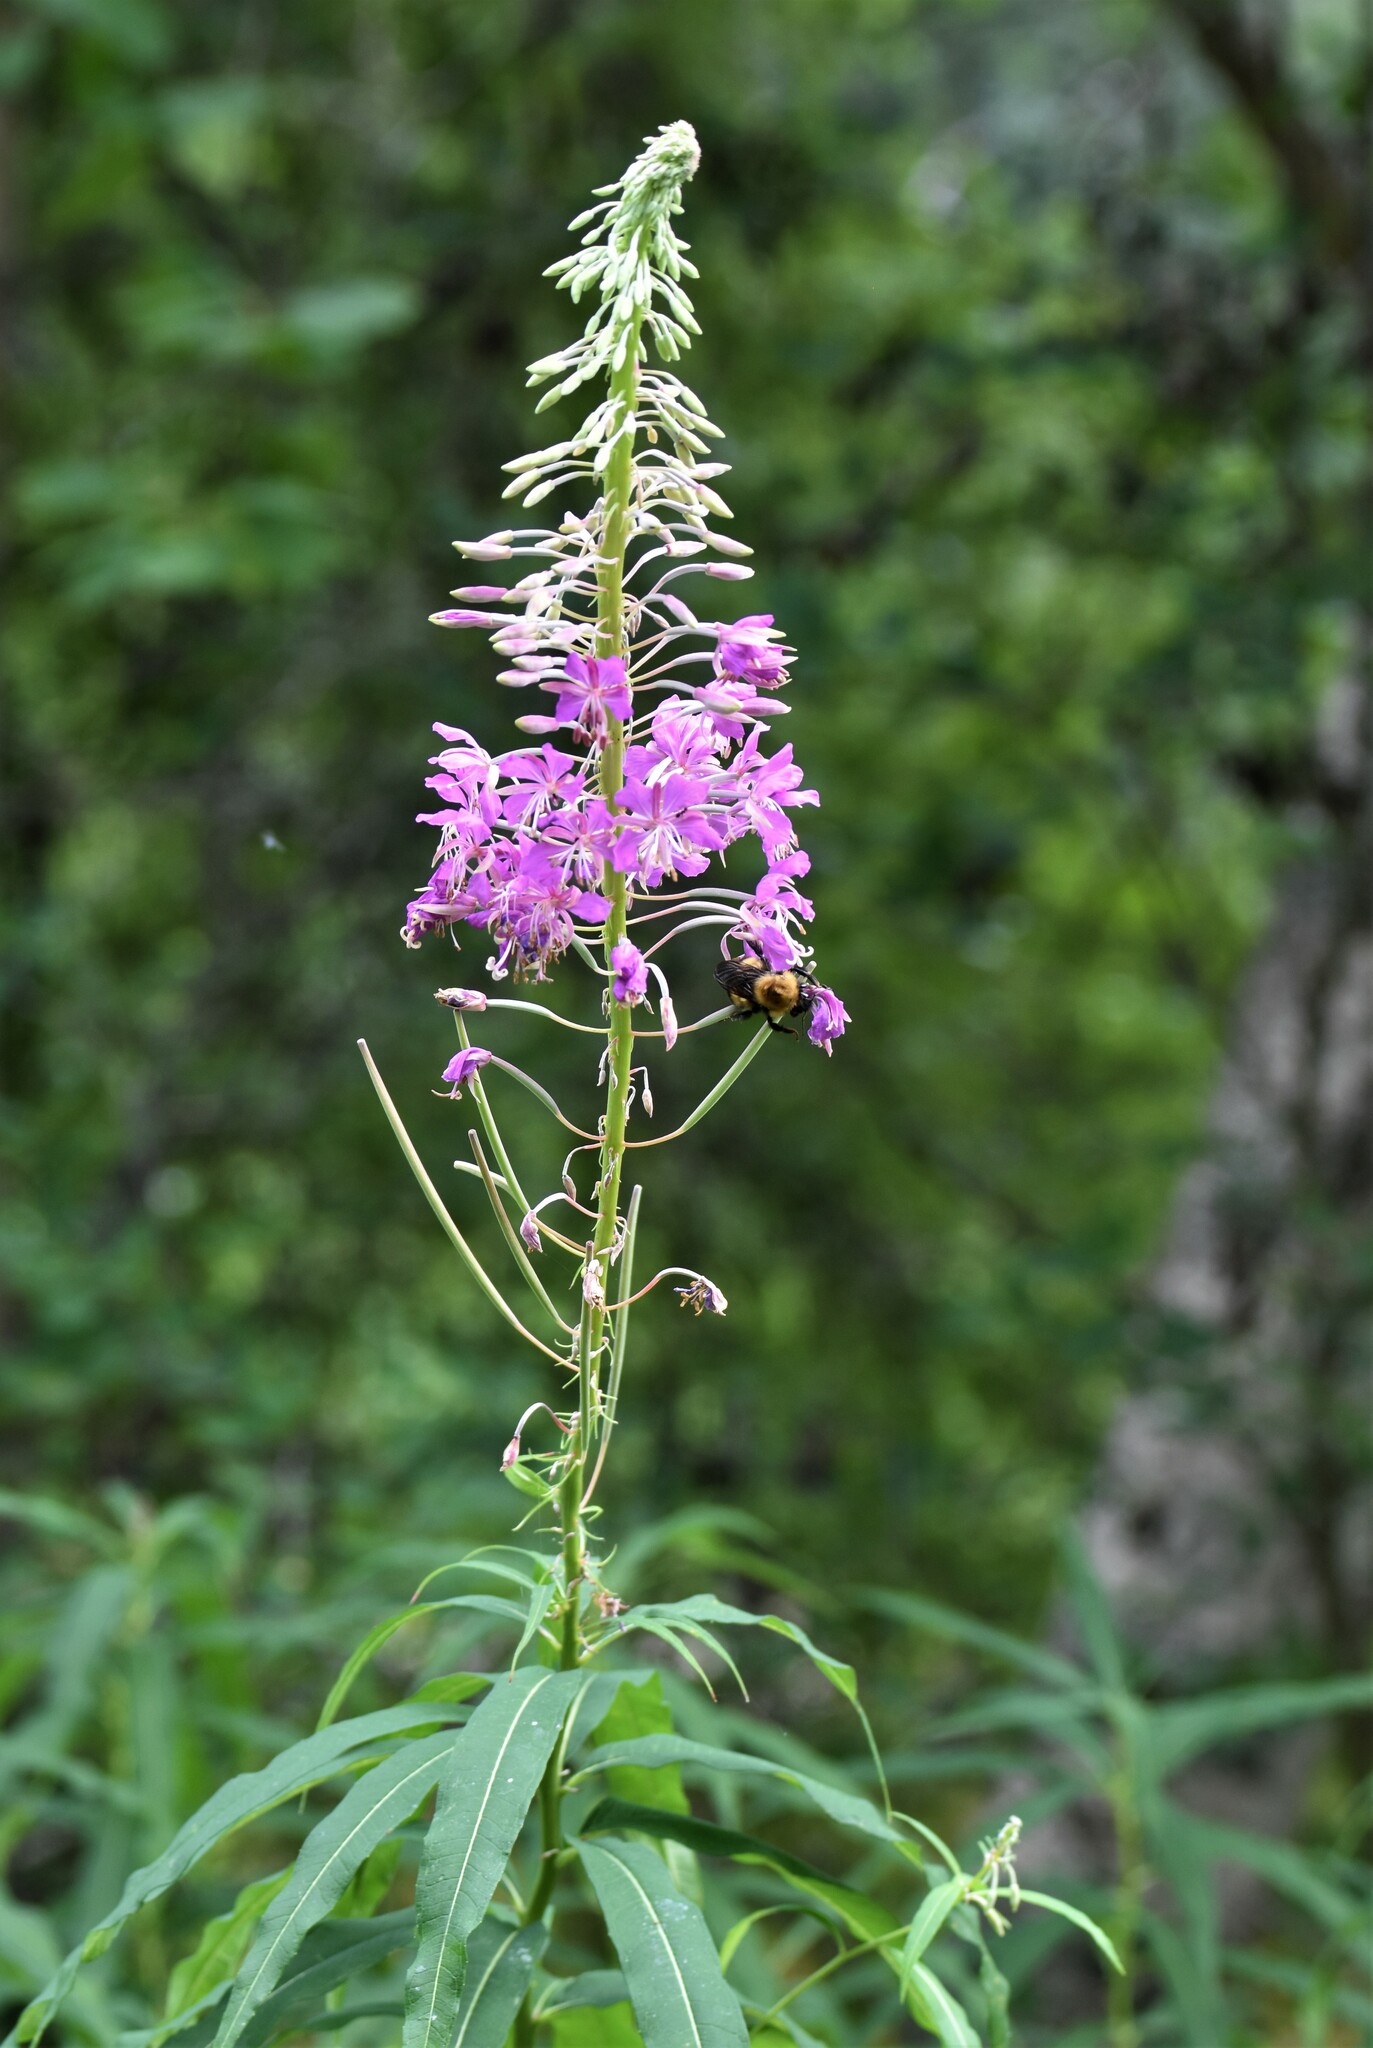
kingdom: Plantae
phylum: Tracheophyta
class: Magnoliopsida
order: Myrtales
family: Onagraceae
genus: Chamaenerion
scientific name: Chamaenerion angustifolium
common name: Fireweed
